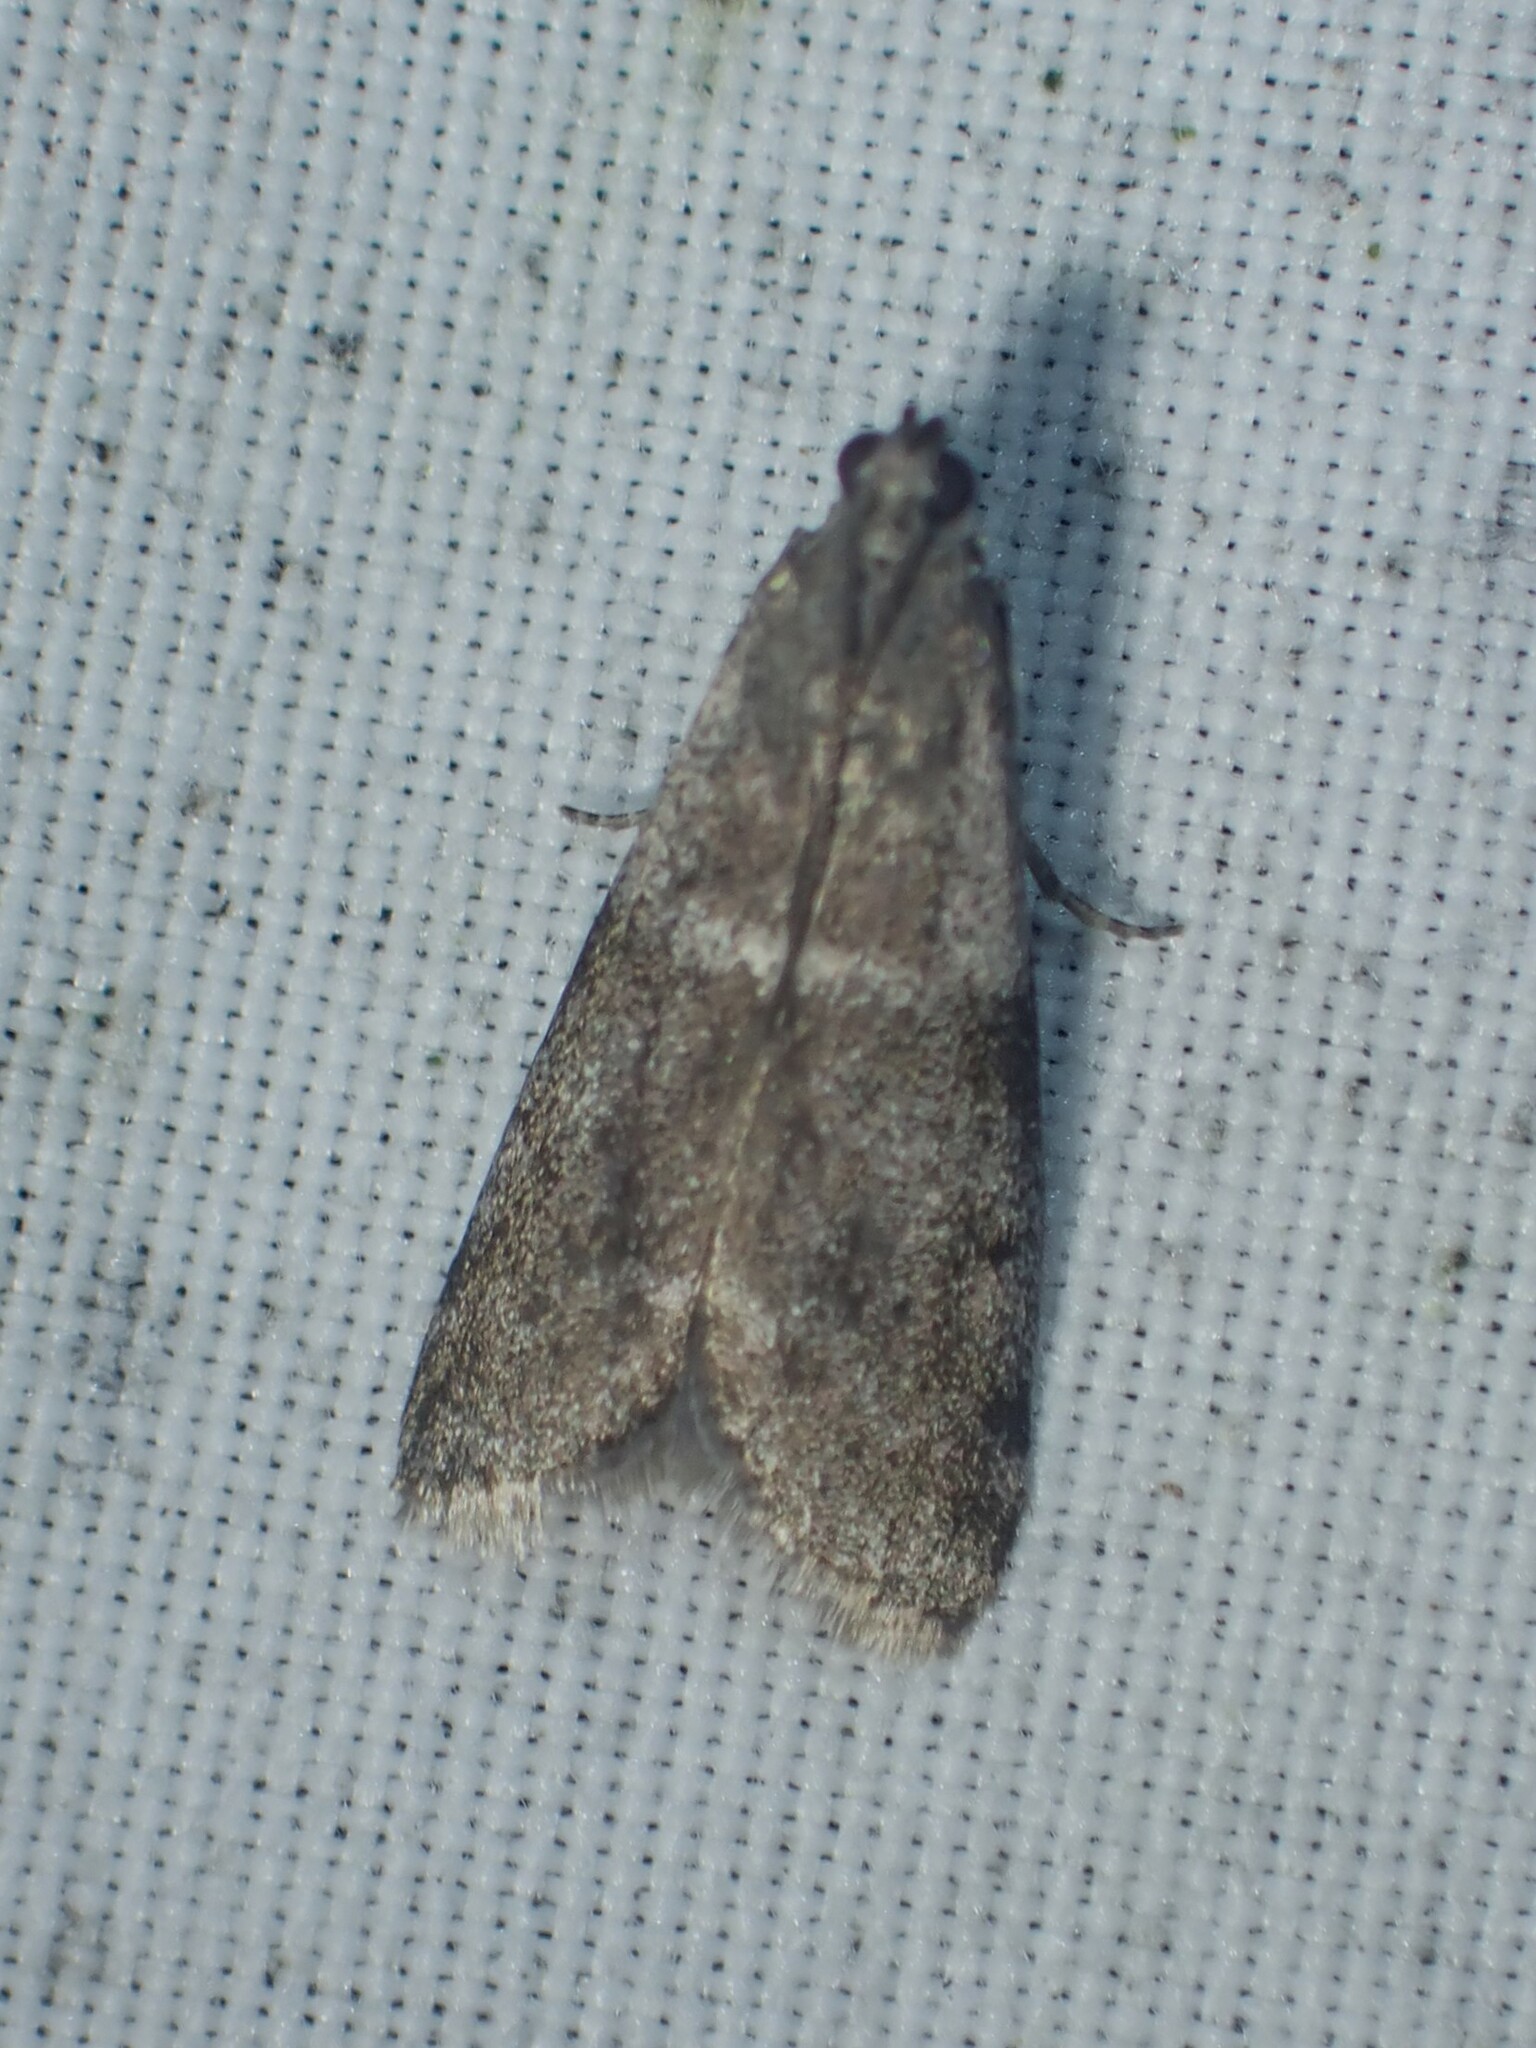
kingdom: Animalia
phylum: Arthropoda
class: Insecta
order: Lepidoptera
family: Pyralidae
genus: Apomyelois
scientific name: Apomyelois bistriatella
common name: Heath knot-horn
